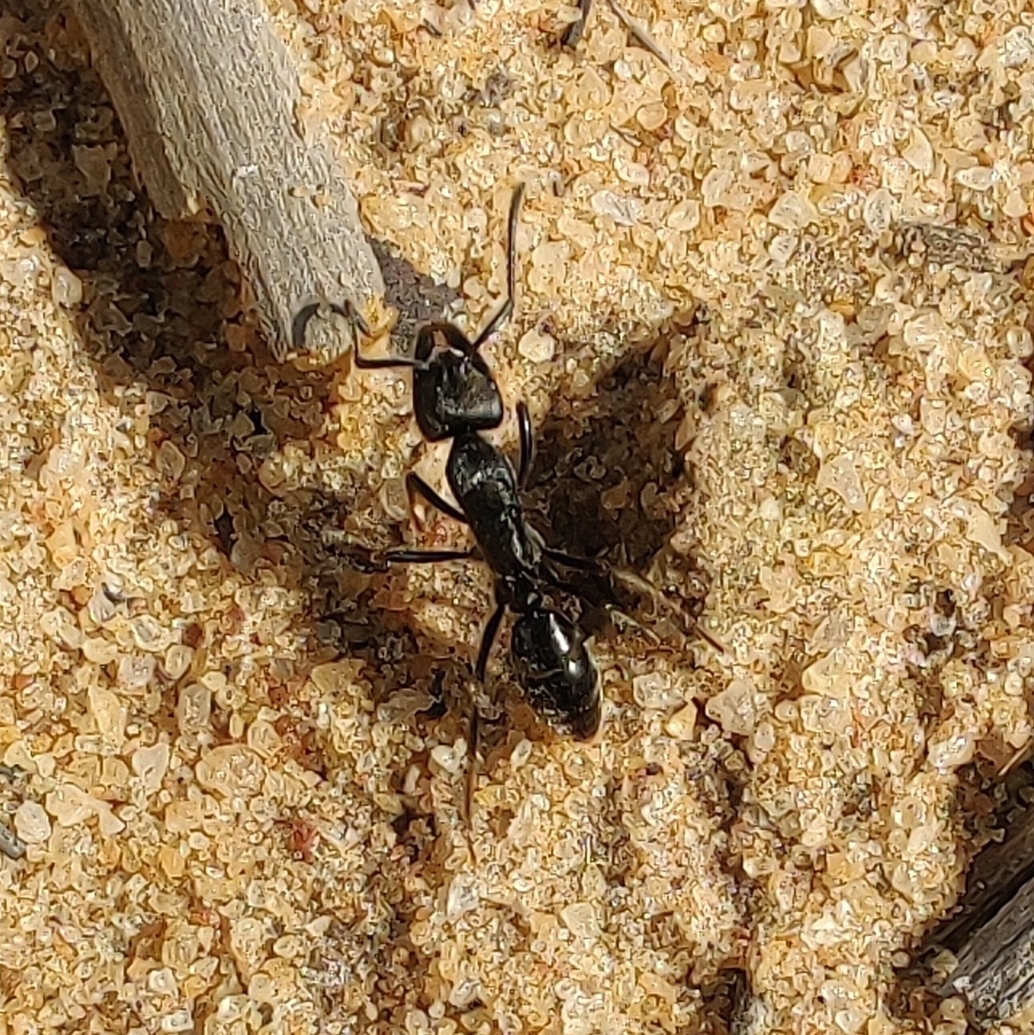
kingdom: Animalia
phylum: Arthropoda
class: Insecta
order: Hymenoptera
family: Formicidae
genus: Paltothyreus
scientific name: Paltothyreus tarsatus
